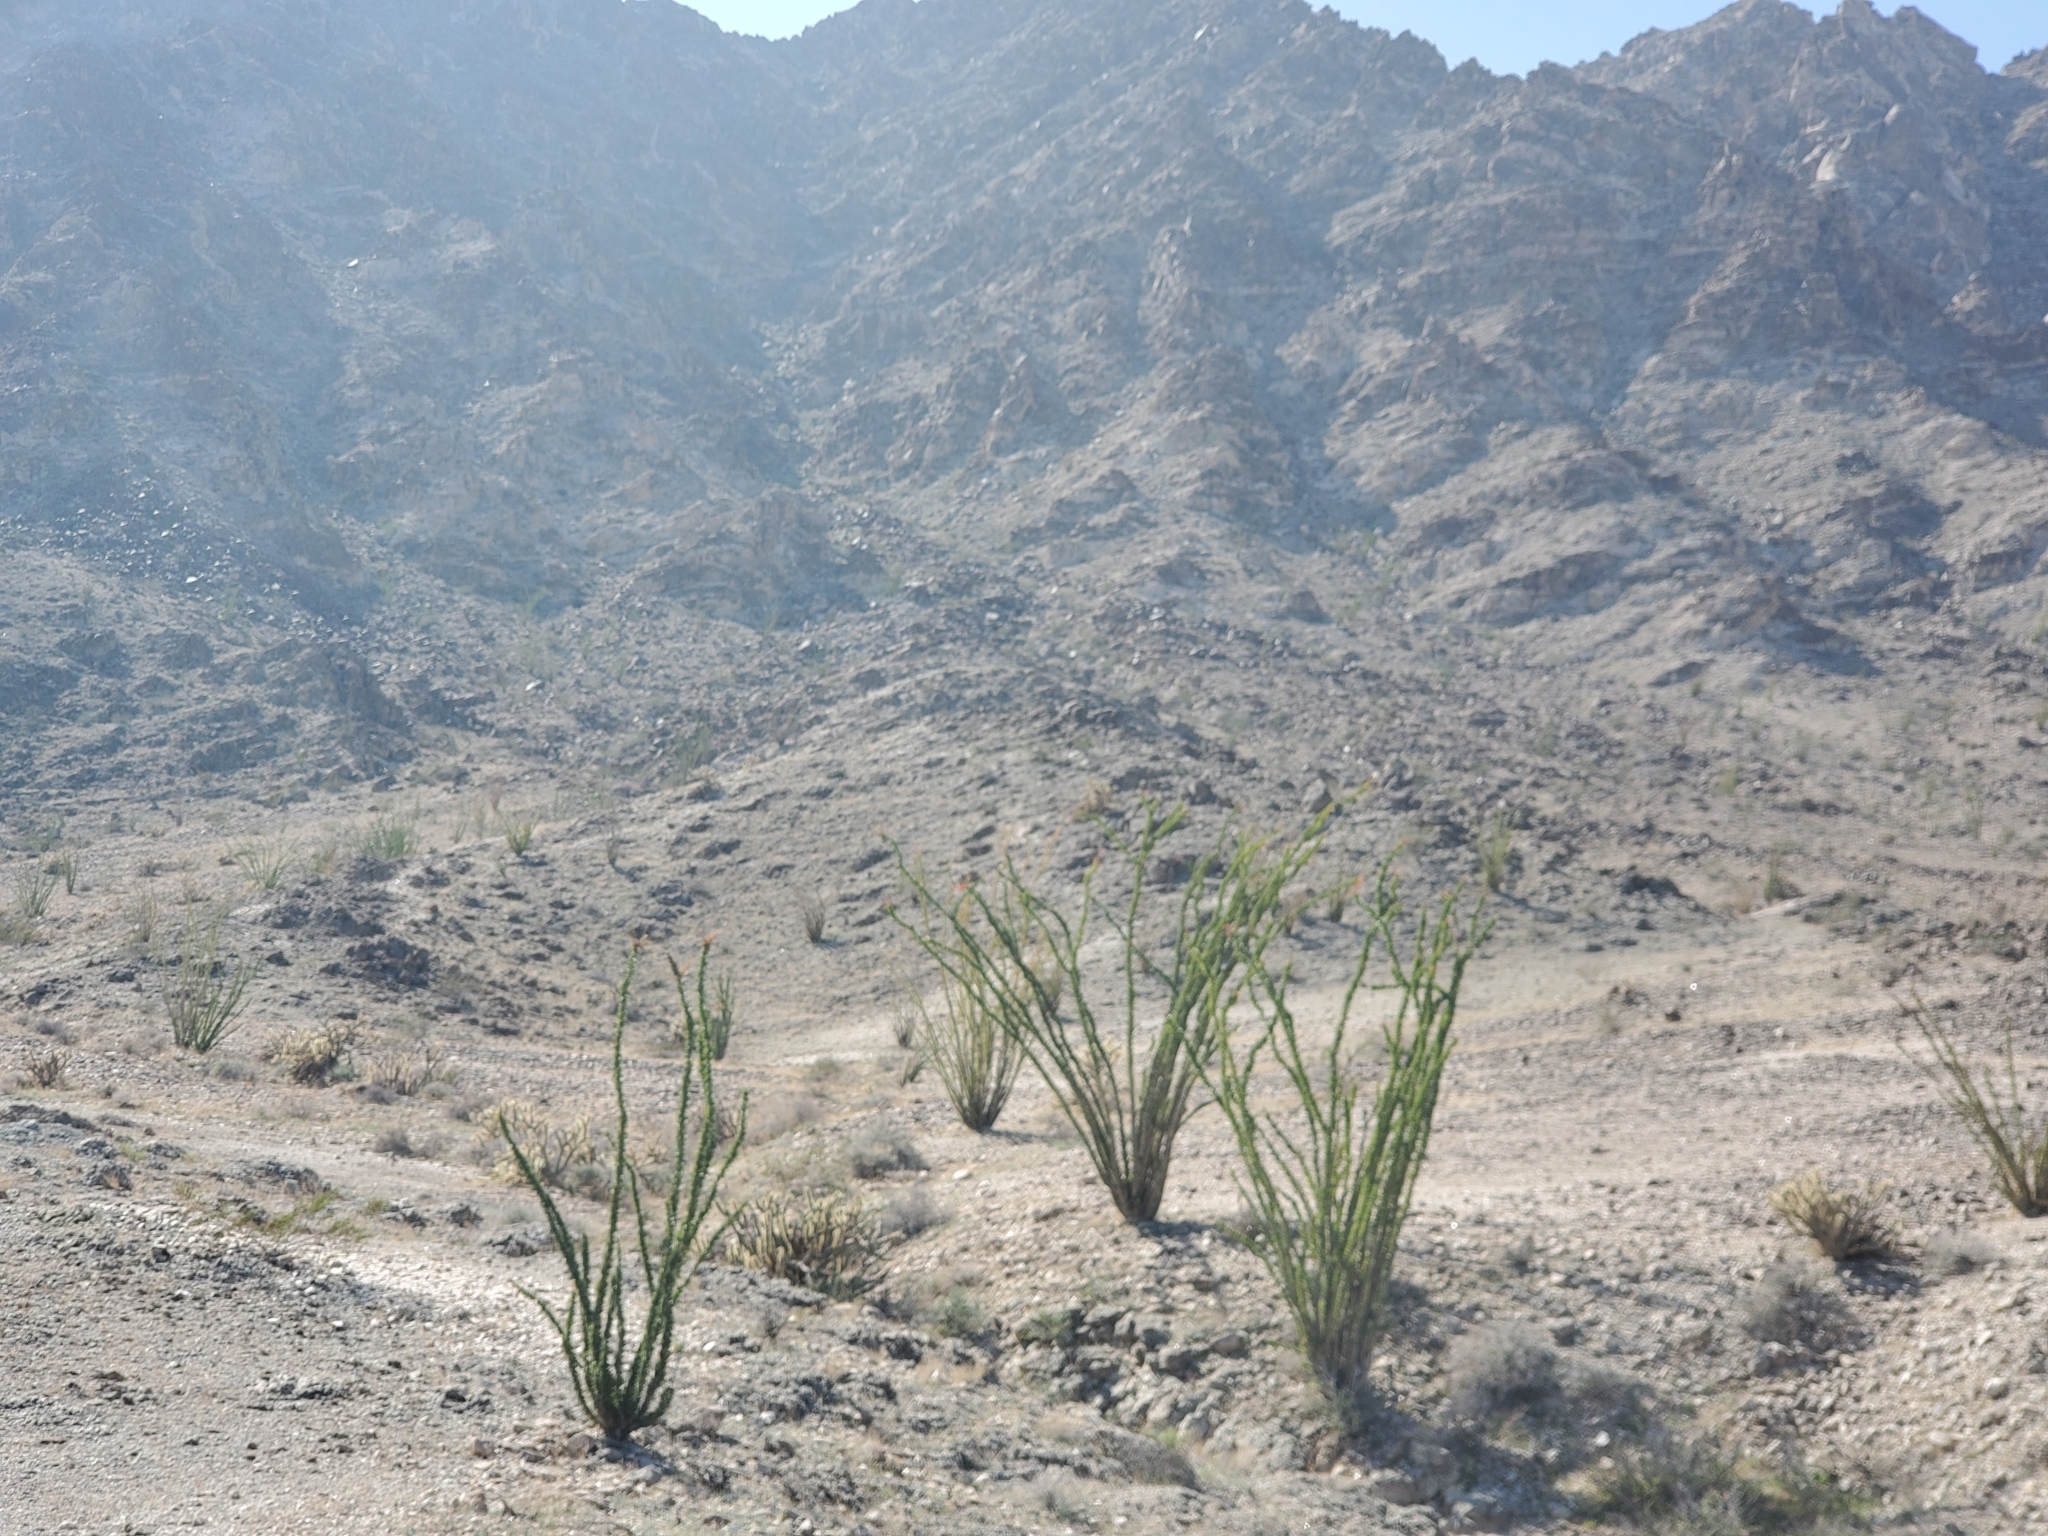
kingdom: Plantae
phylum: Tracheophyta
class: Magnoliopsida
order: Ericales
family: Fouquieriaceae
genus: Fouquieria
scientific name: Fouquieria splendens
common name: Vine-cactus
